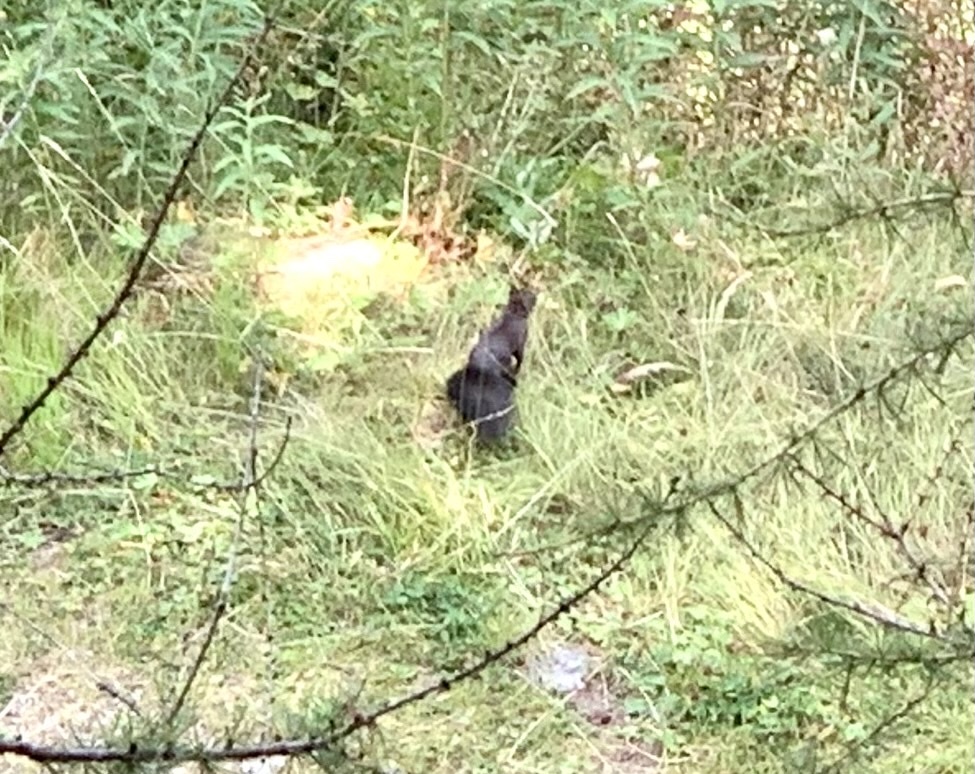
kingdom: Animalia
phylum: Chordata
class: Mammalia
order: Rodentia
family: Sciuridae
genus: Sciurus
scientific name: Sciurus vulgaris
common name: Eurasian red squirrel
